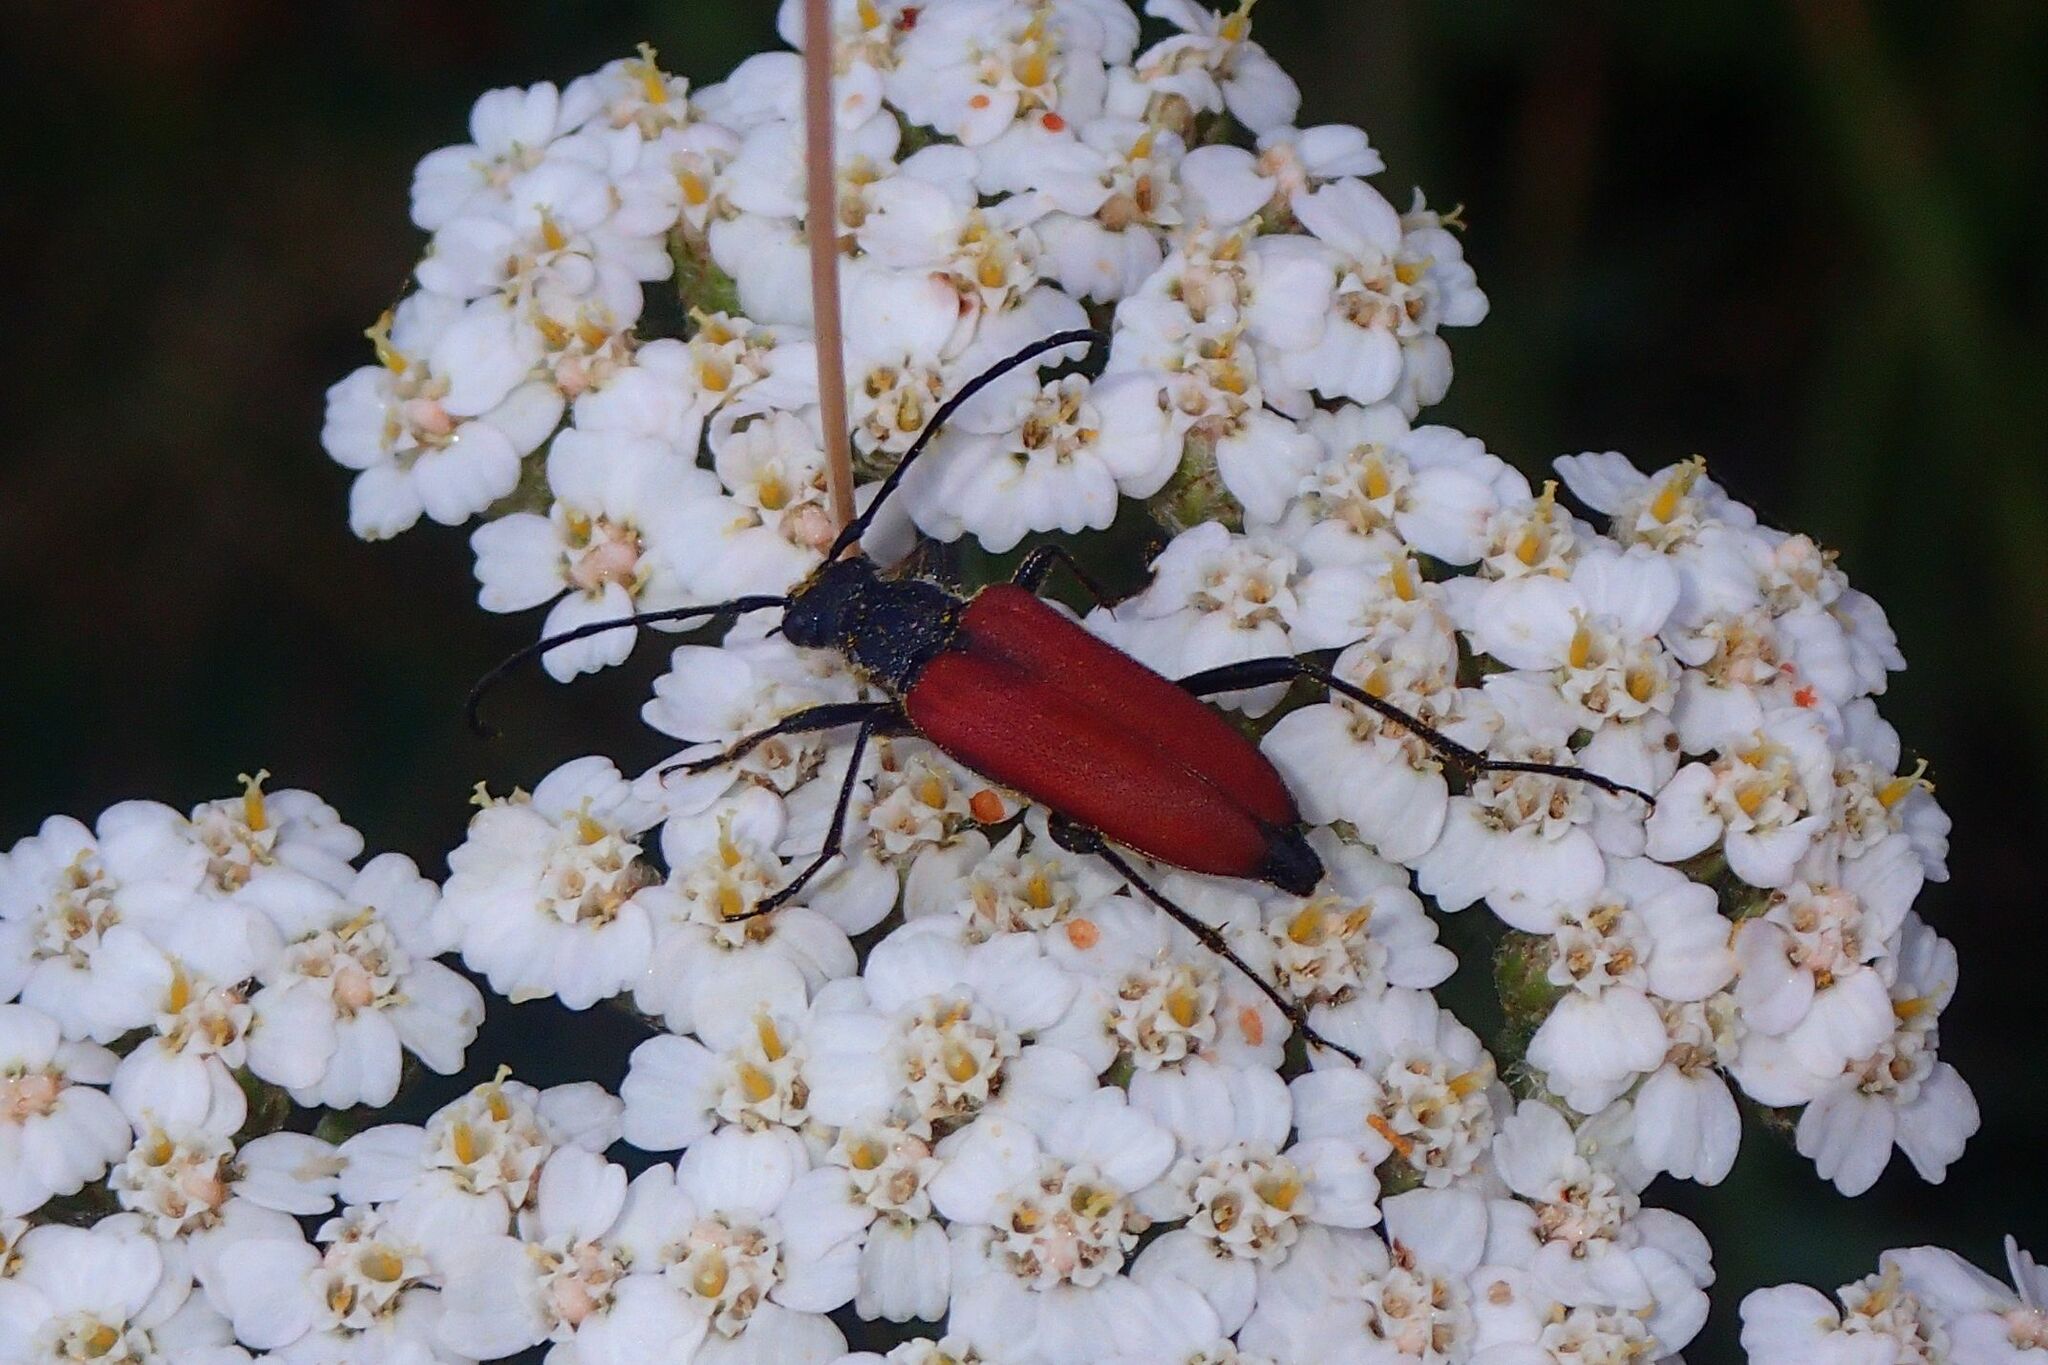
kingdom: Animalia
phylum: Arthropoda
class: Insecta
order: Coleoptera
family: Cerambycidae
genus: Anastrangalia
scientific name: Anastrangalia sanguinolenta
